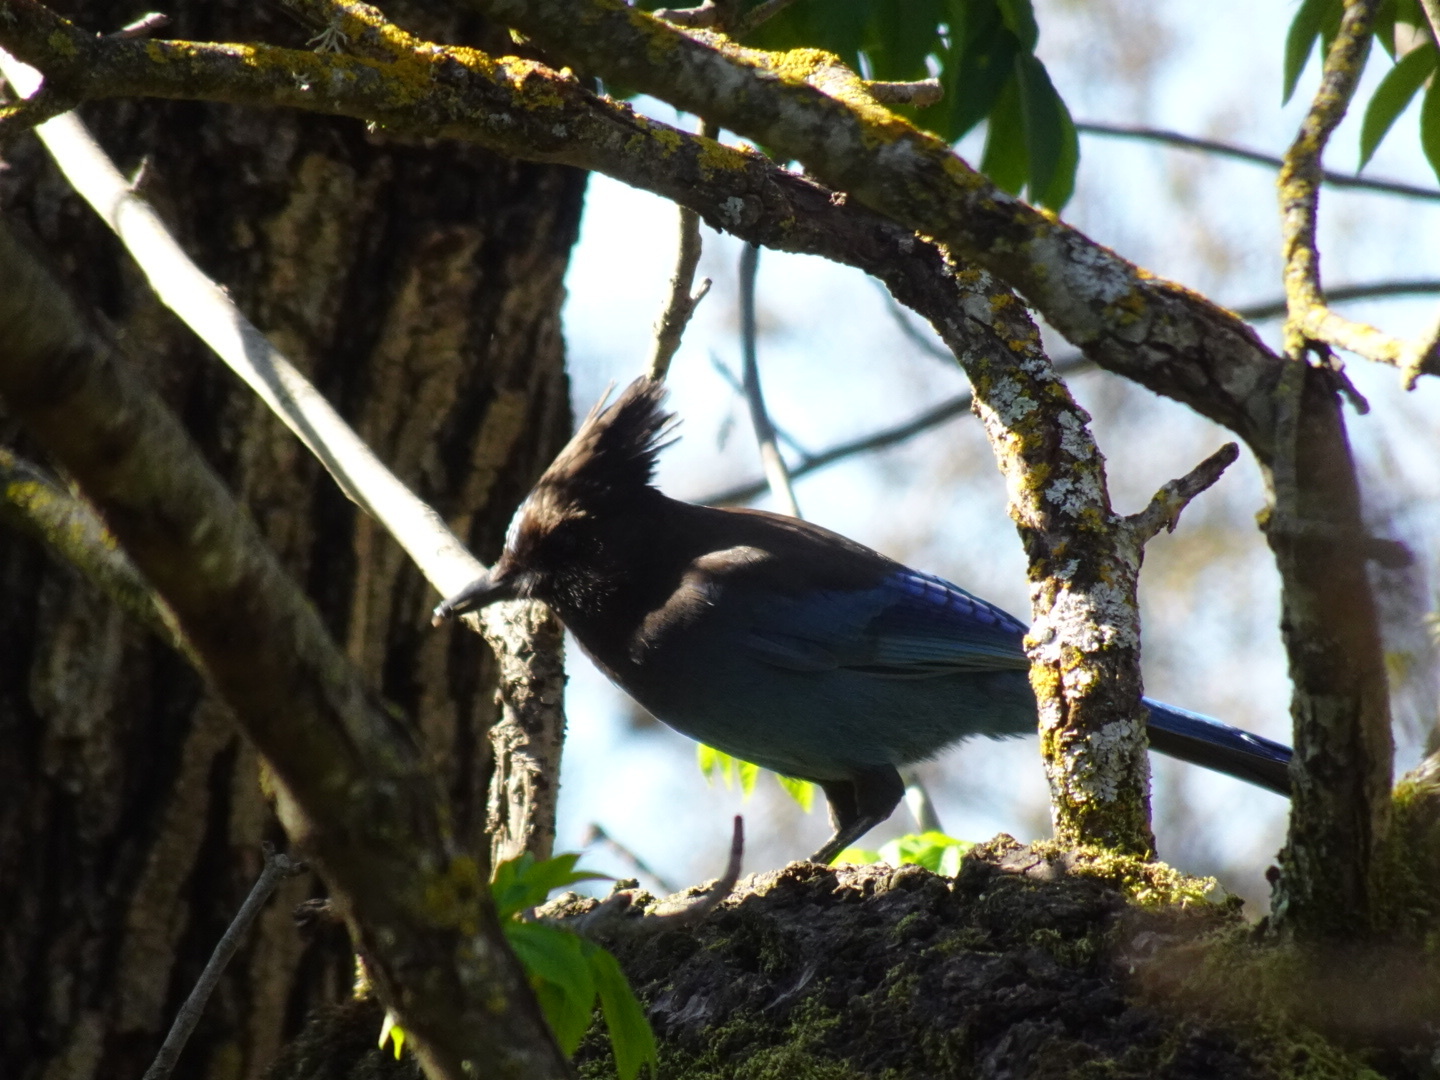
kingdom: Animalia
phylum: Chordata
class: Aves
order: Passeriformes
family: Corvidae
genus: Cyanocitta
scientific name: Cyanocitta stelleri
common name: Steller's jay
